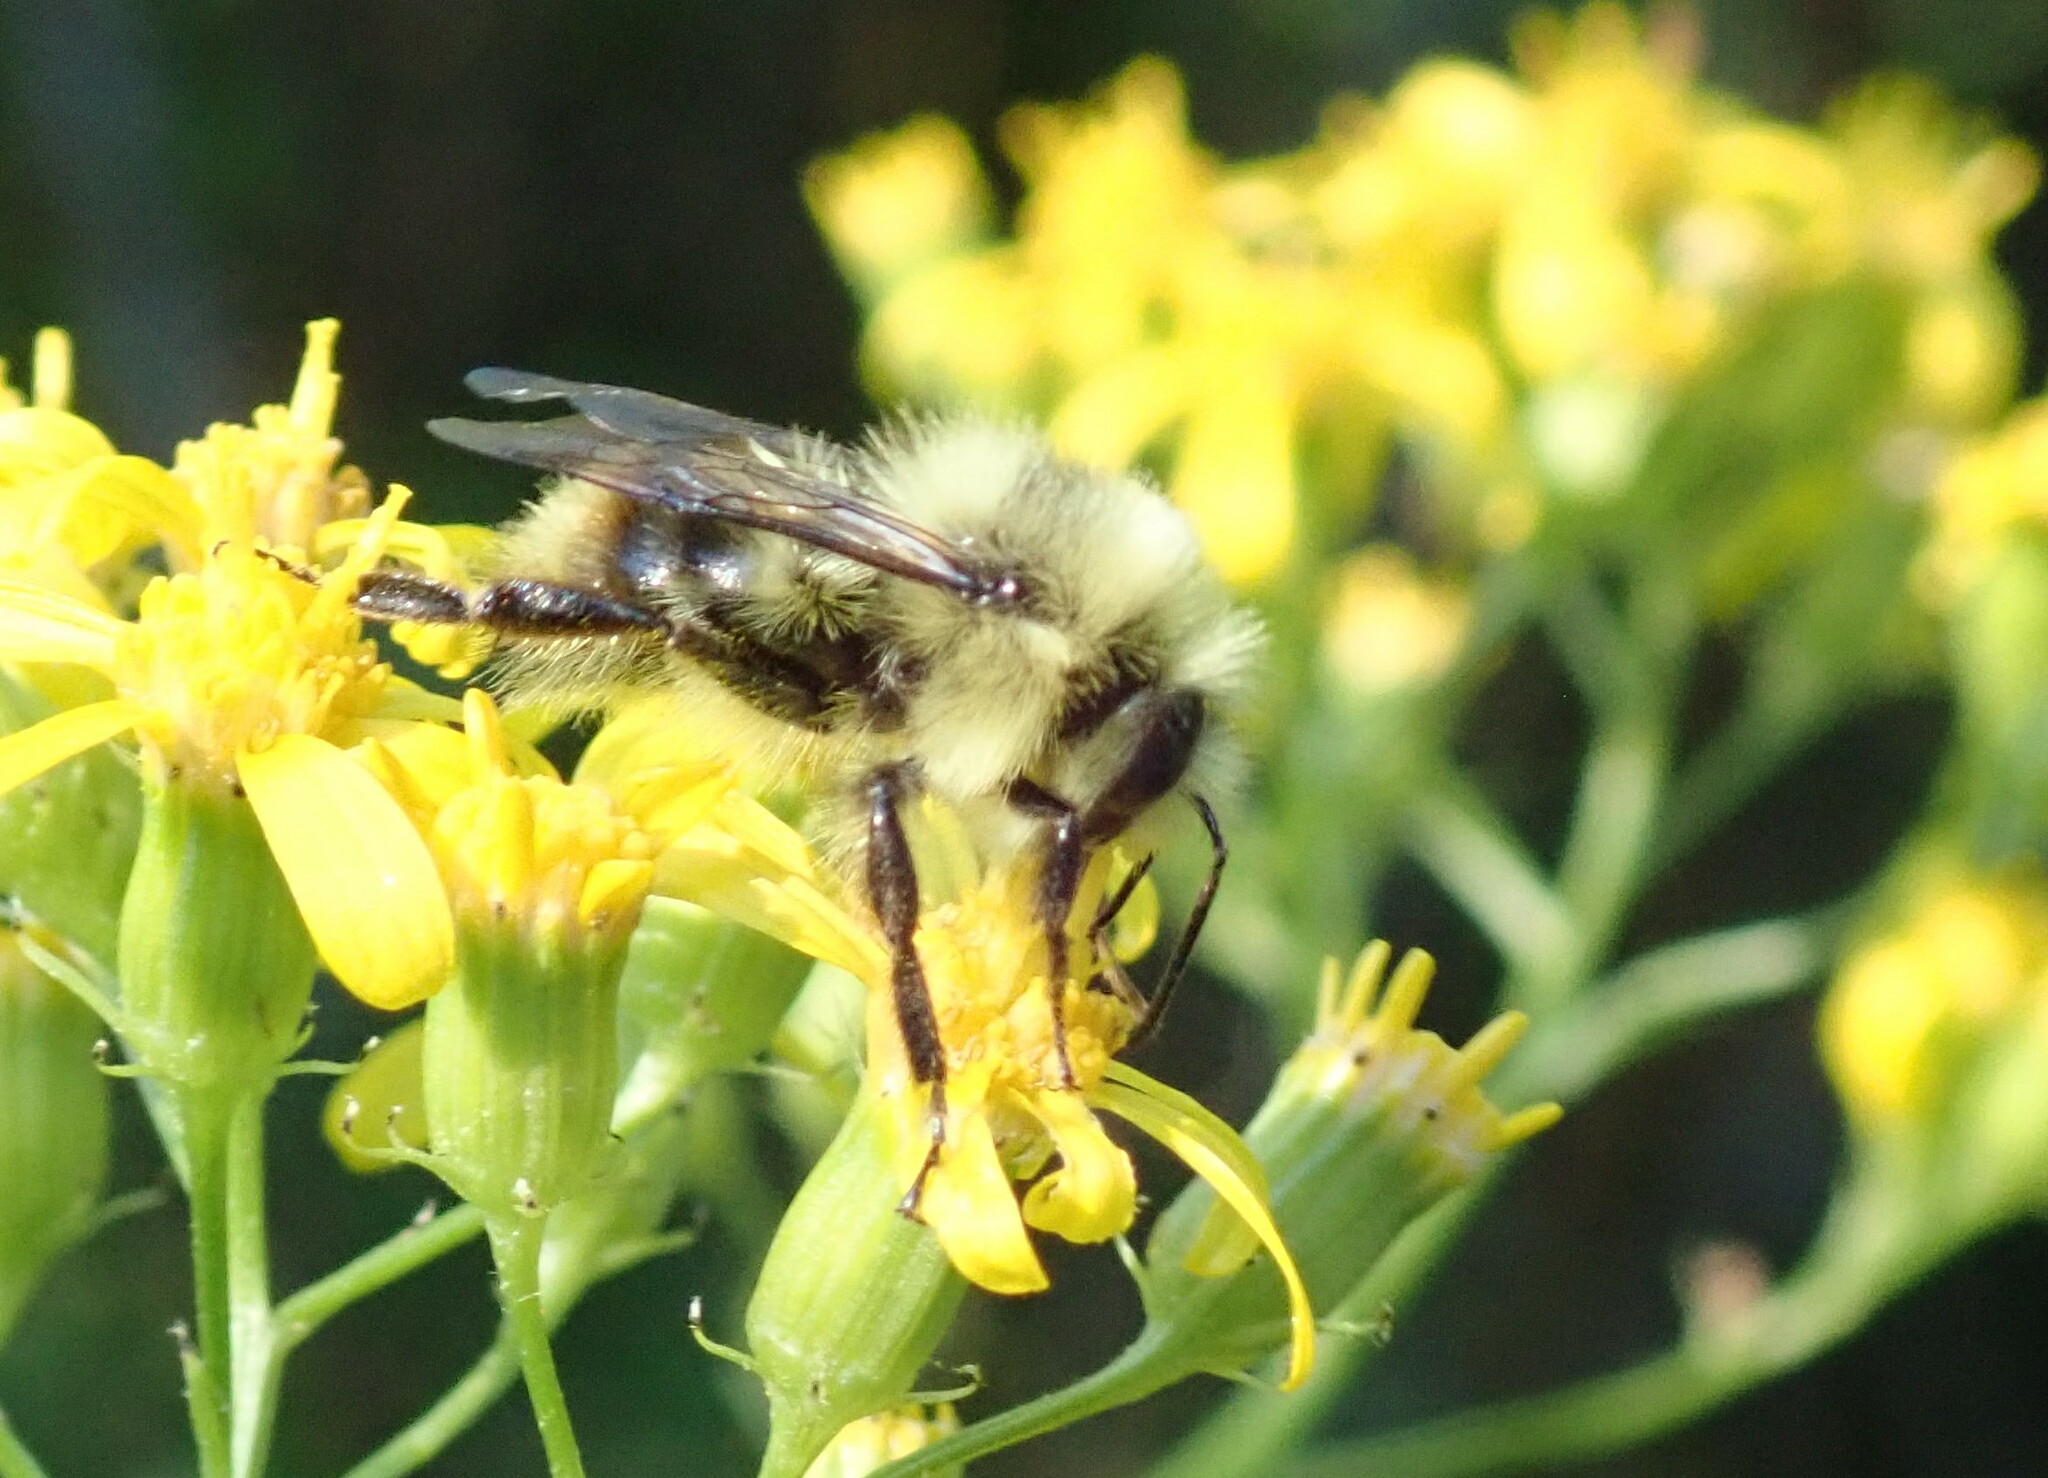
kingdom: Animalia
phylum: Arthropoda
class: Insecta
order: Hymenoptera
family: Apidae
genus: Bombus
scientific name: Bombus vancouverensis
